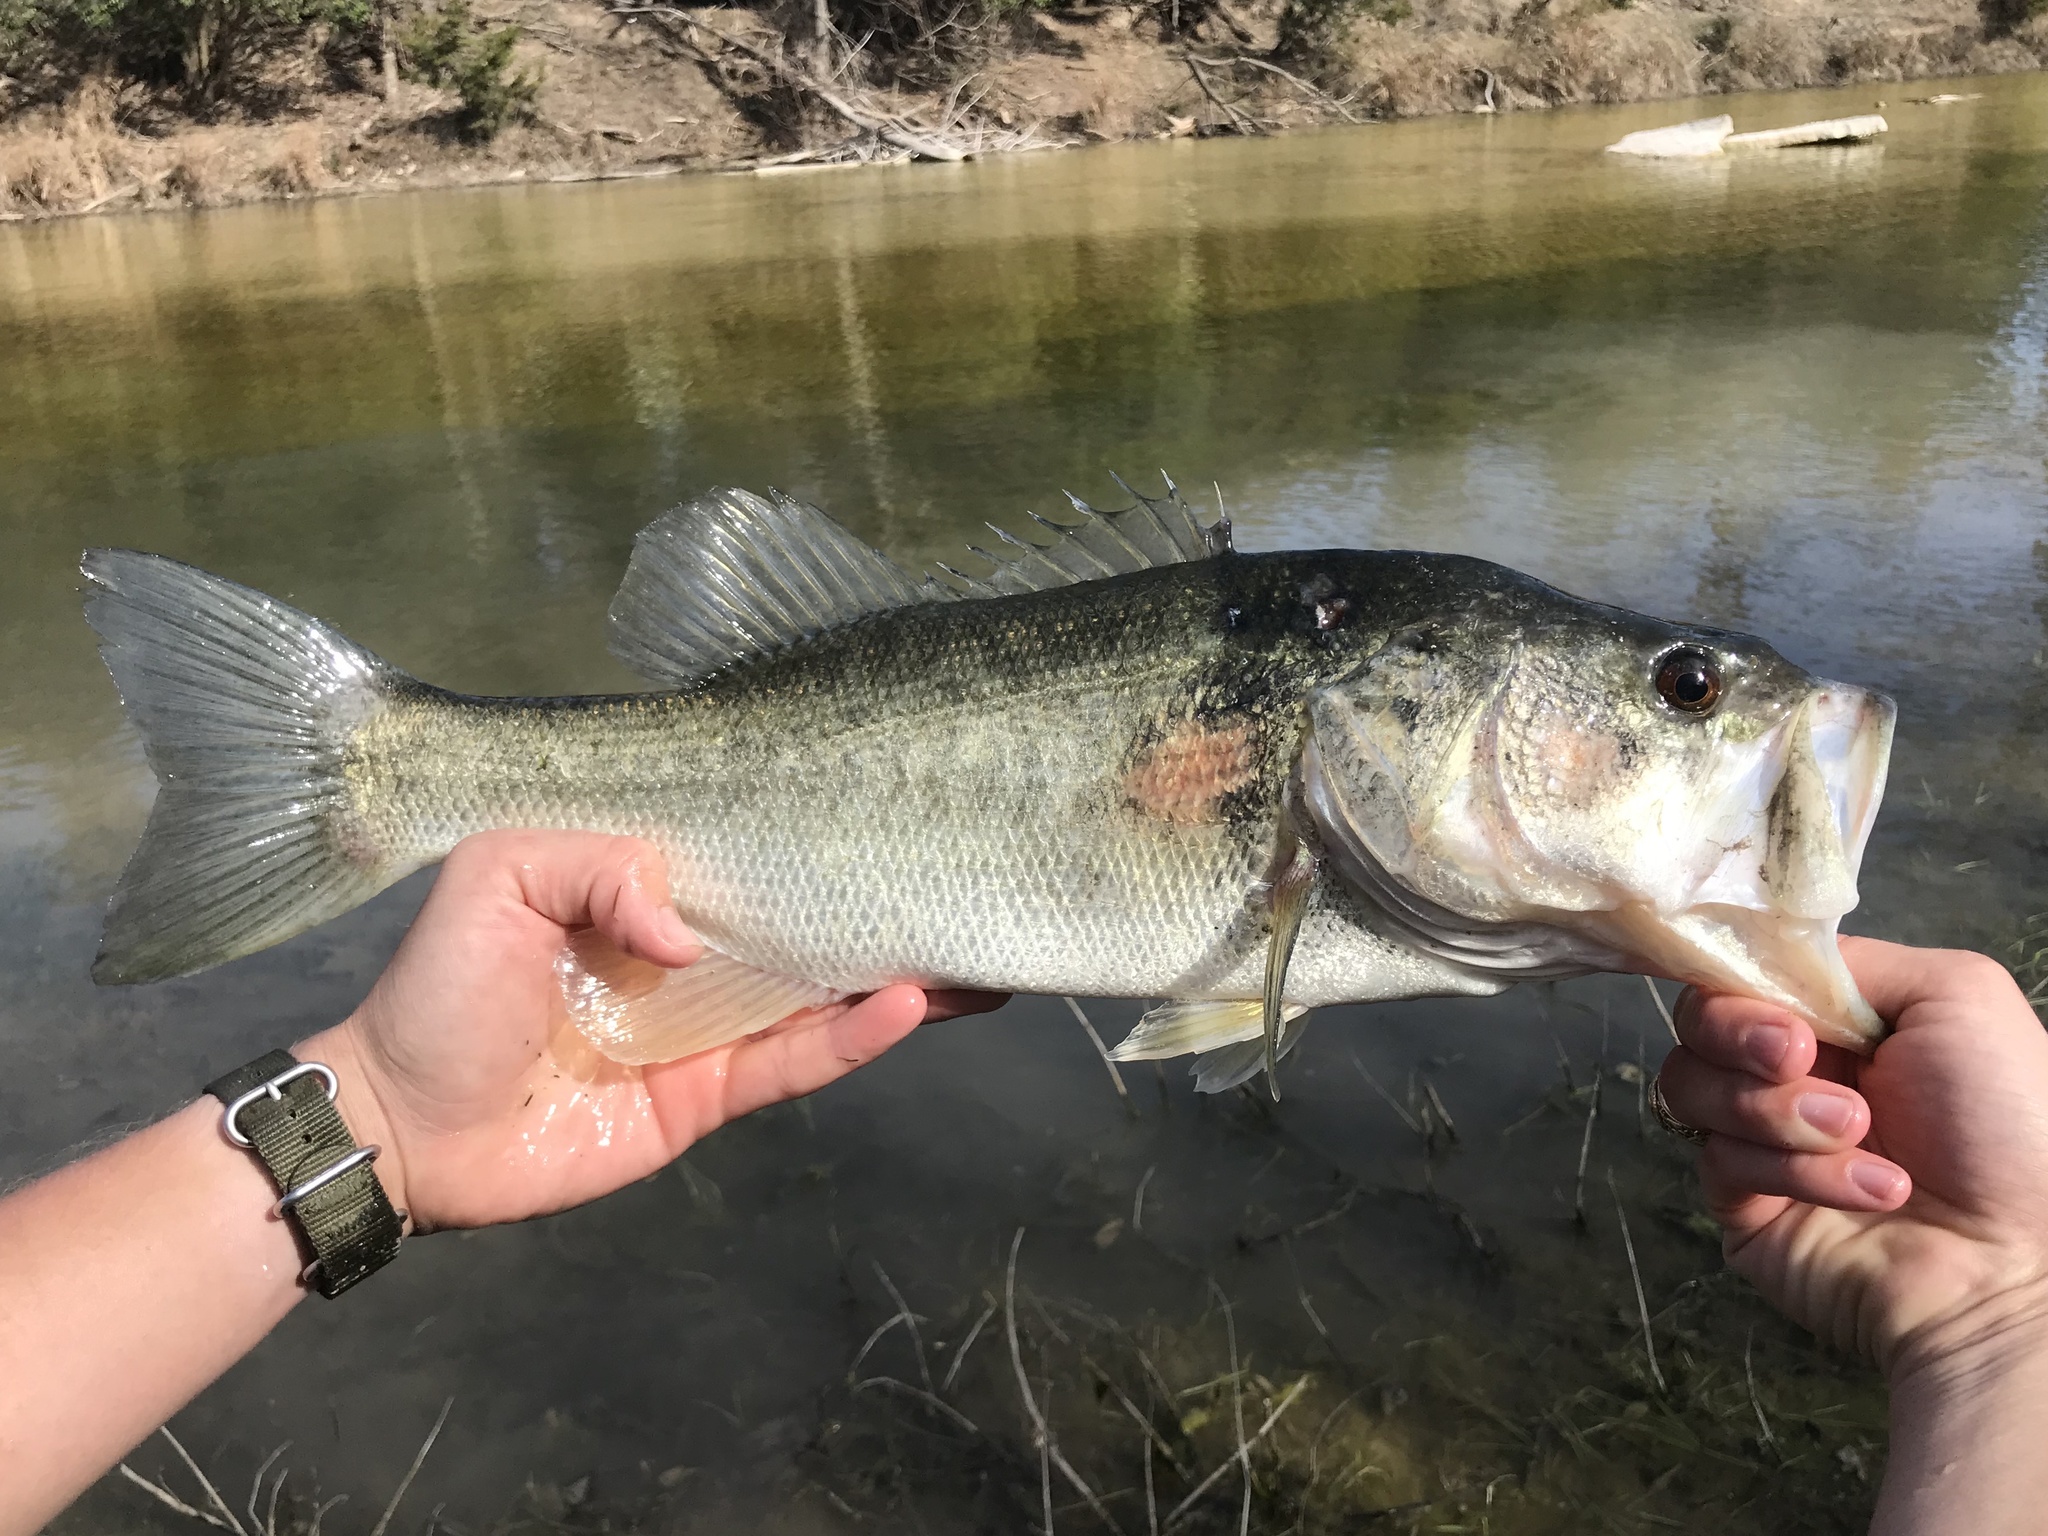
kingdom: Animalia
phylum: Chordata
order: Perciformes
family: Centrarchidae
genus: Micropterus
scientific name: Micropterus
